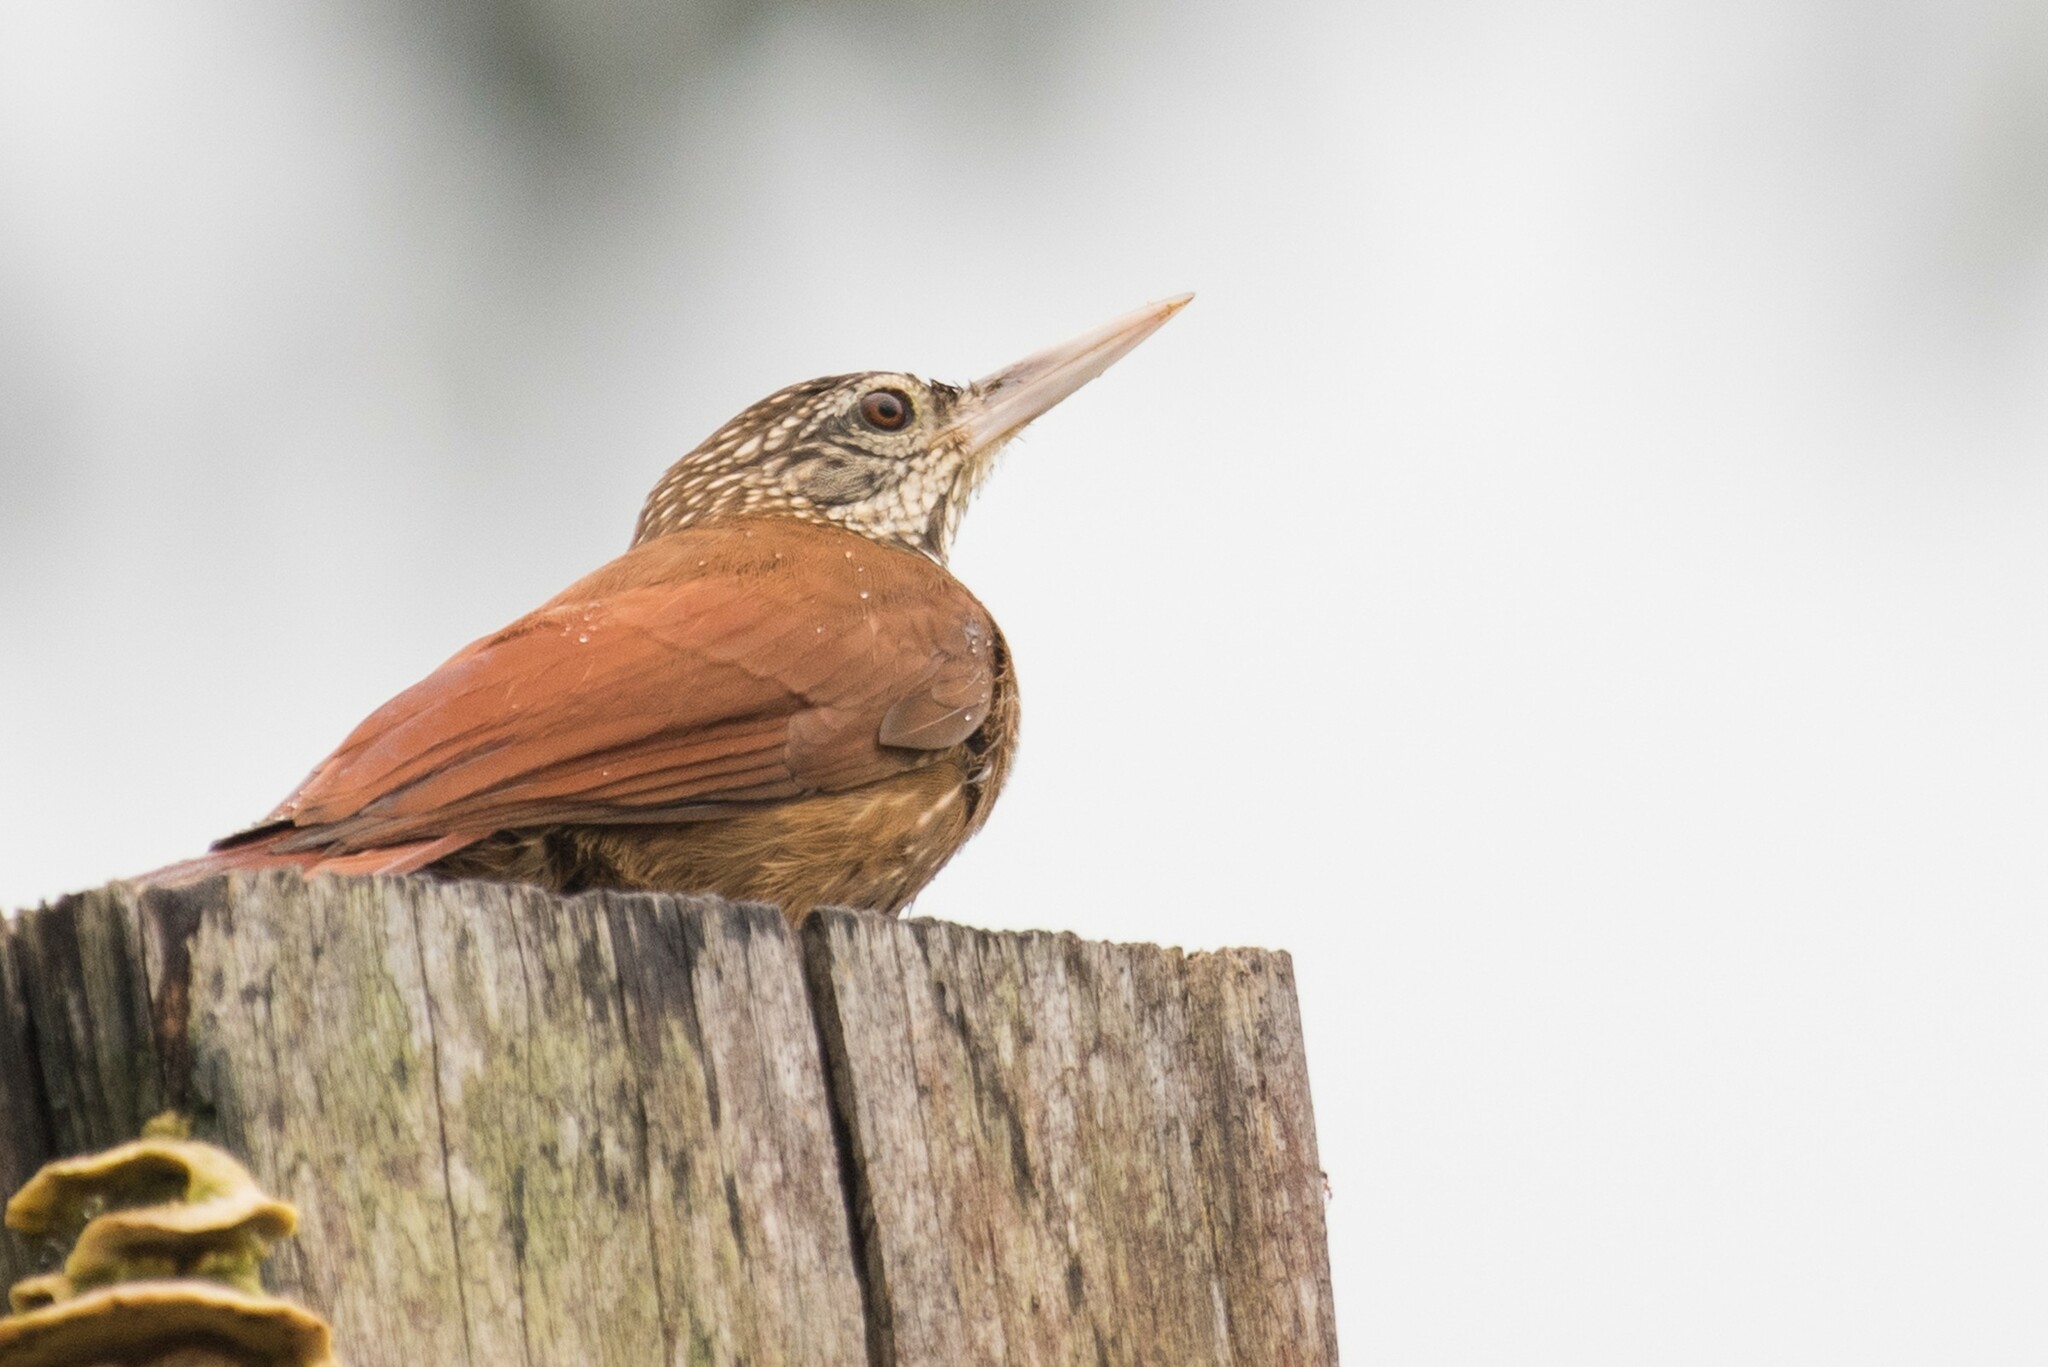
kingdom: Animalia
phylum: Chordata
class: Aves
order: Passeriformes
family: Furnariidae
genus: Xiphorhynchus
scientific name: Xiphorhynchus picus
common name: Straight-billed woodcreeper
